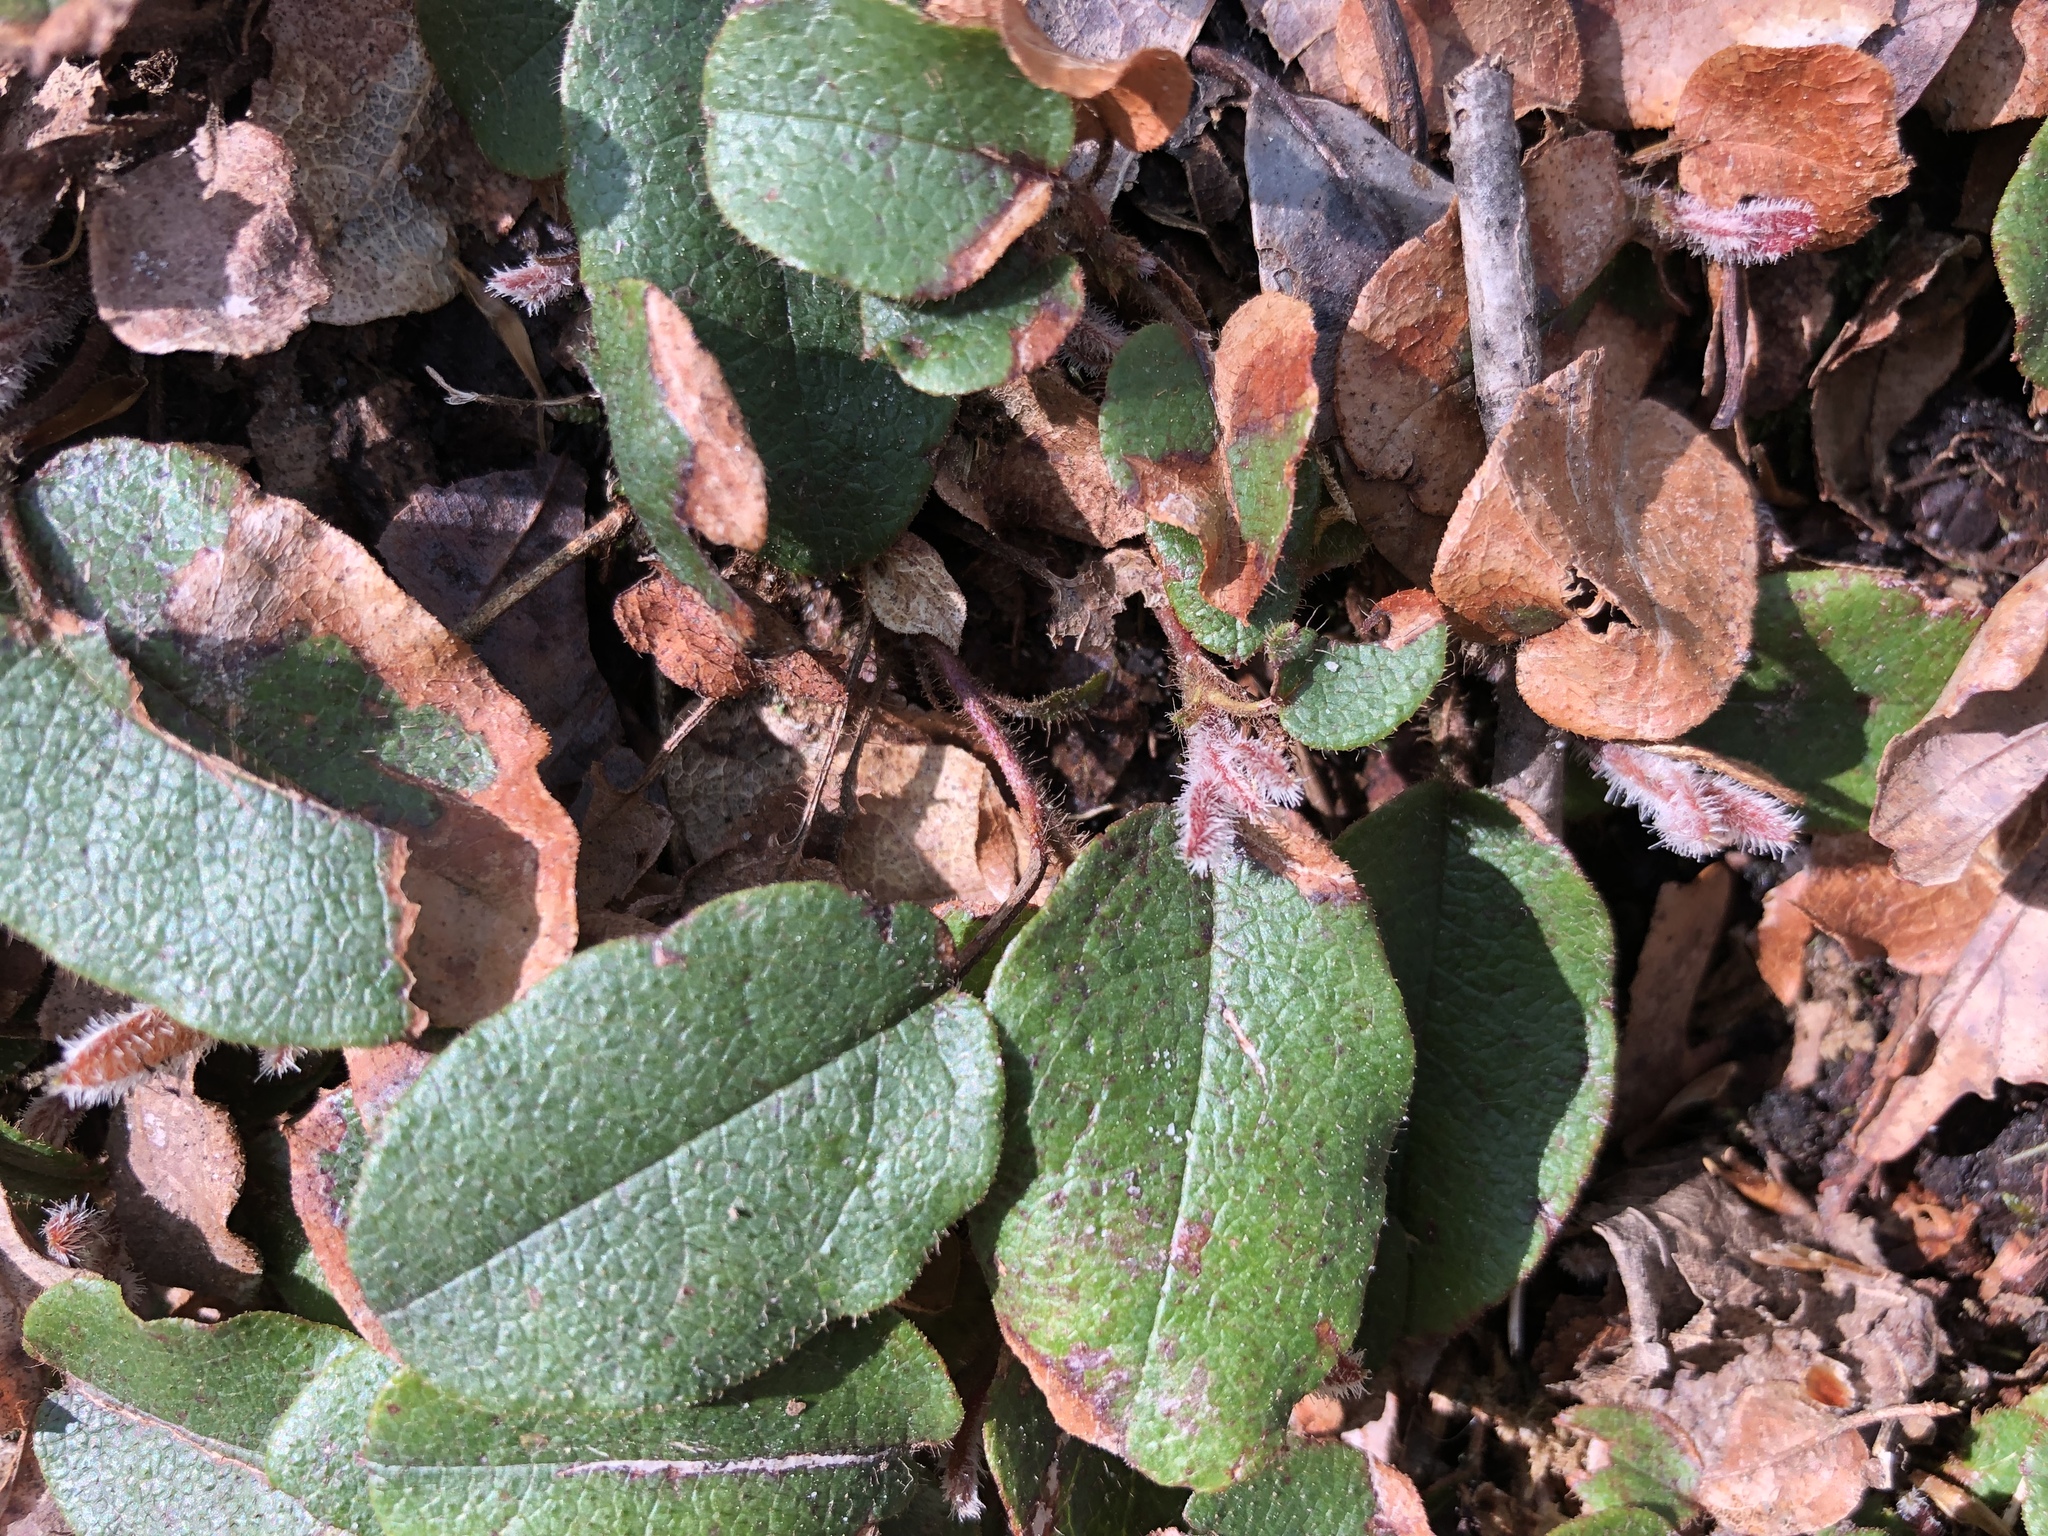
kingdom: Plantae
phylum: Tracheophyta
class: Magnoliopsida
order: Ericales
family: Ericaceae
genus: Epigaea
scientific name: Epigaea repens
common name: Gravelroot
